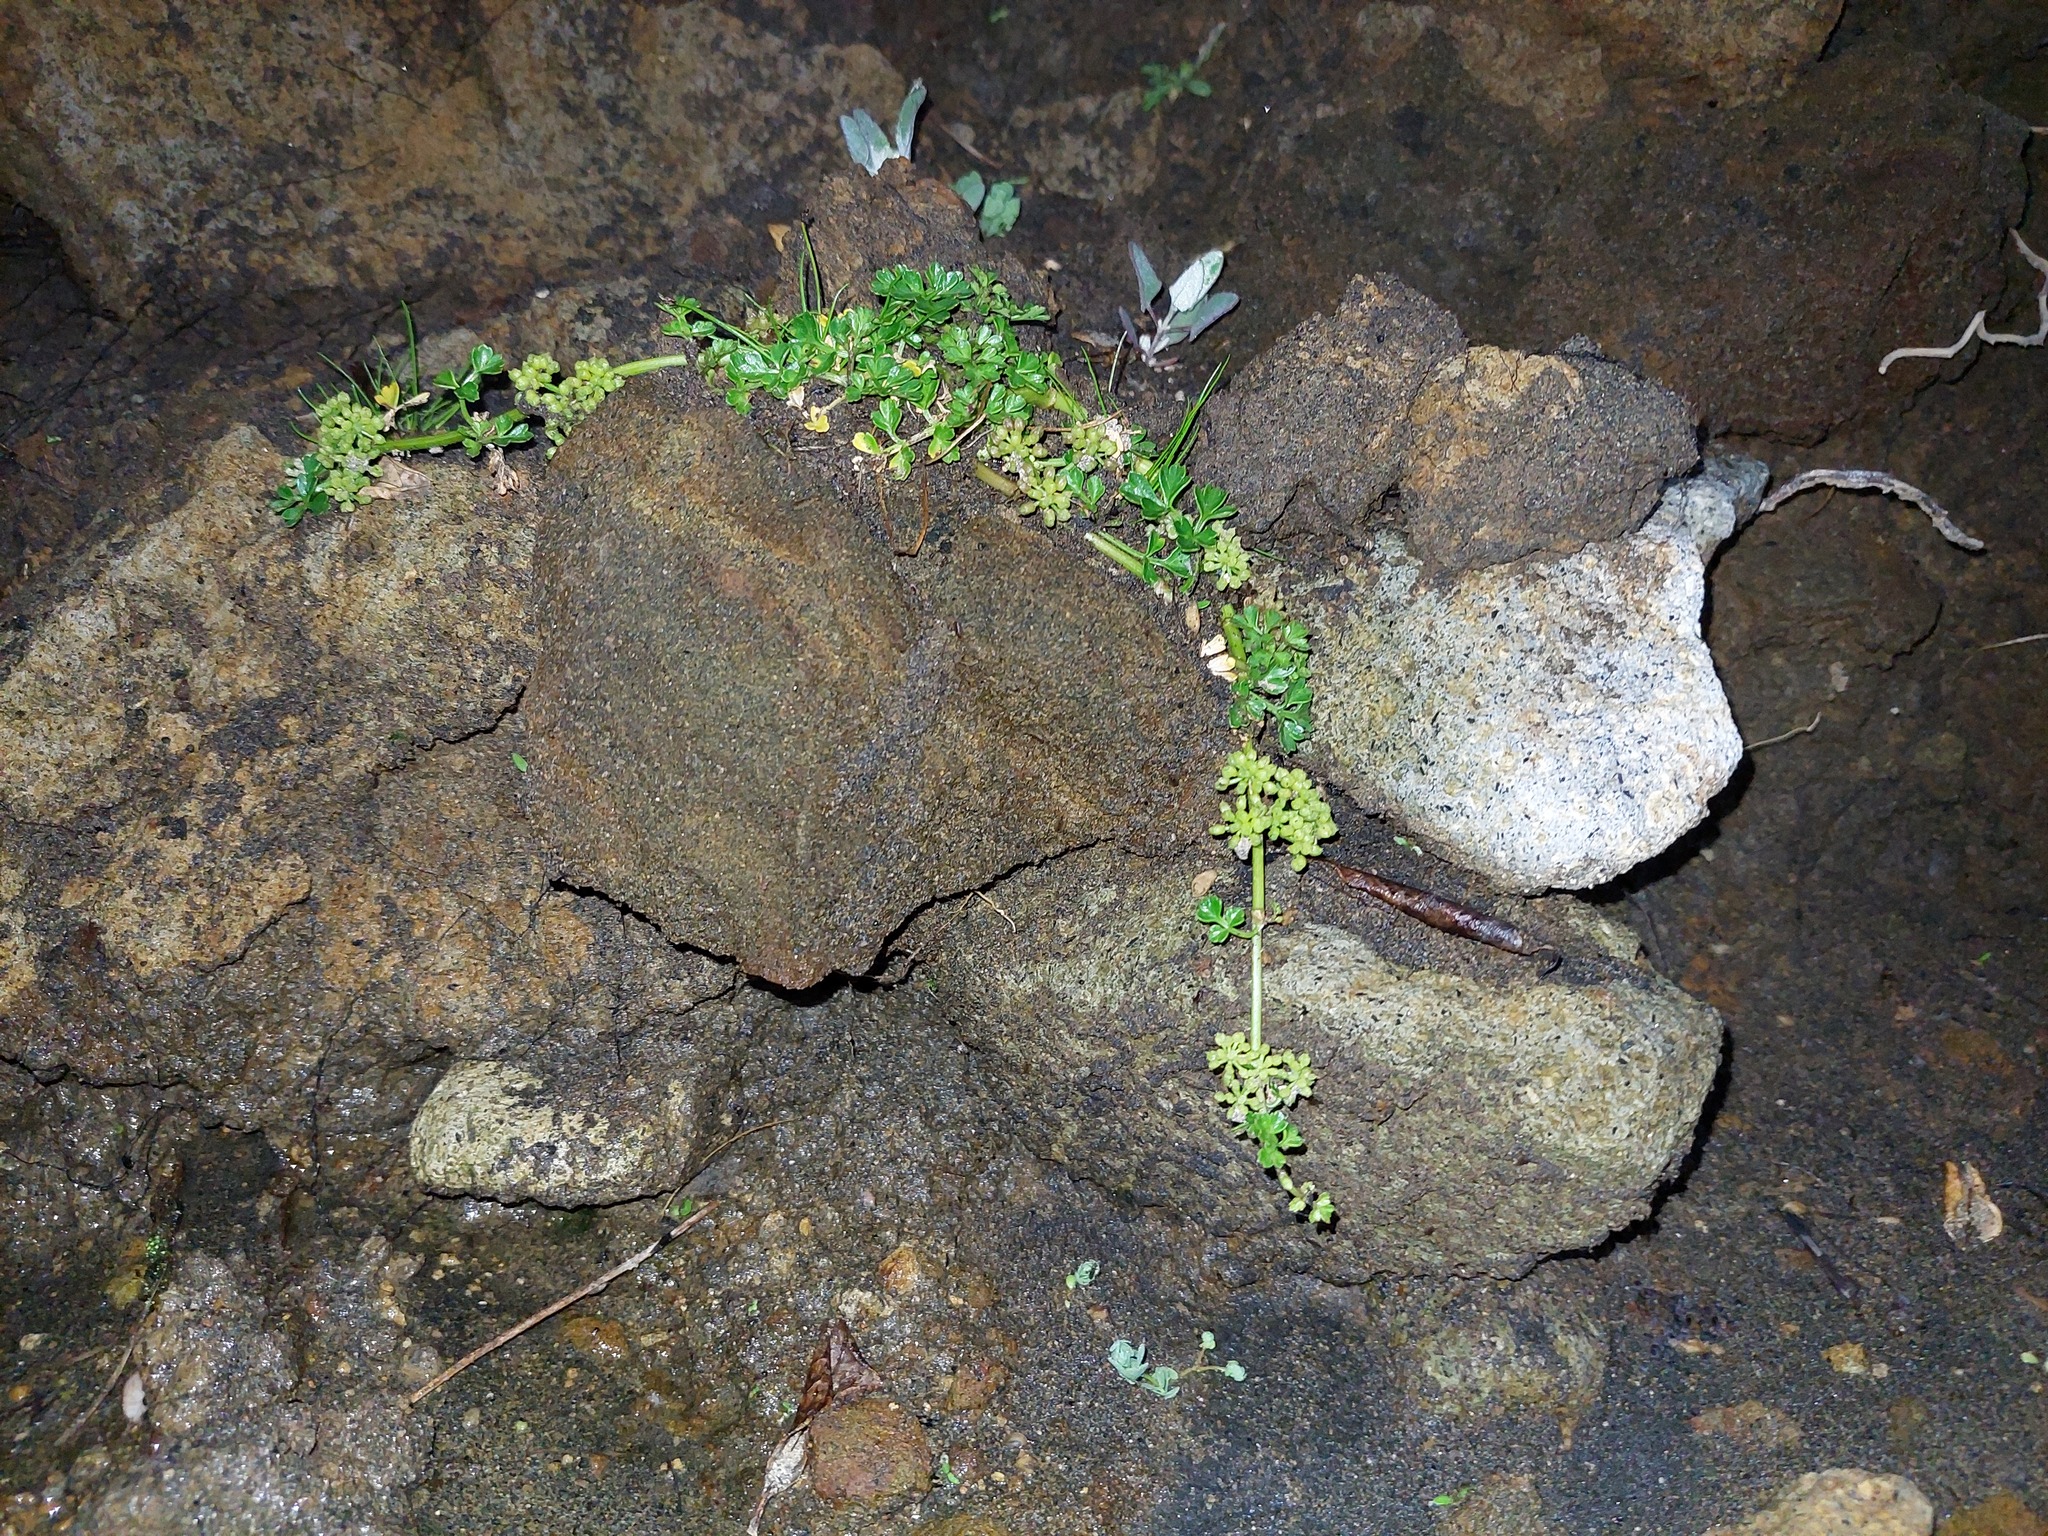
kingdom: Plantae
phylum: Tracheophyta
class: Magnoliopsida
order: Apiales
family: Apiaceae
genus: Apium
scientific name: Apium prostratum
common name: Prostrate marshwort
